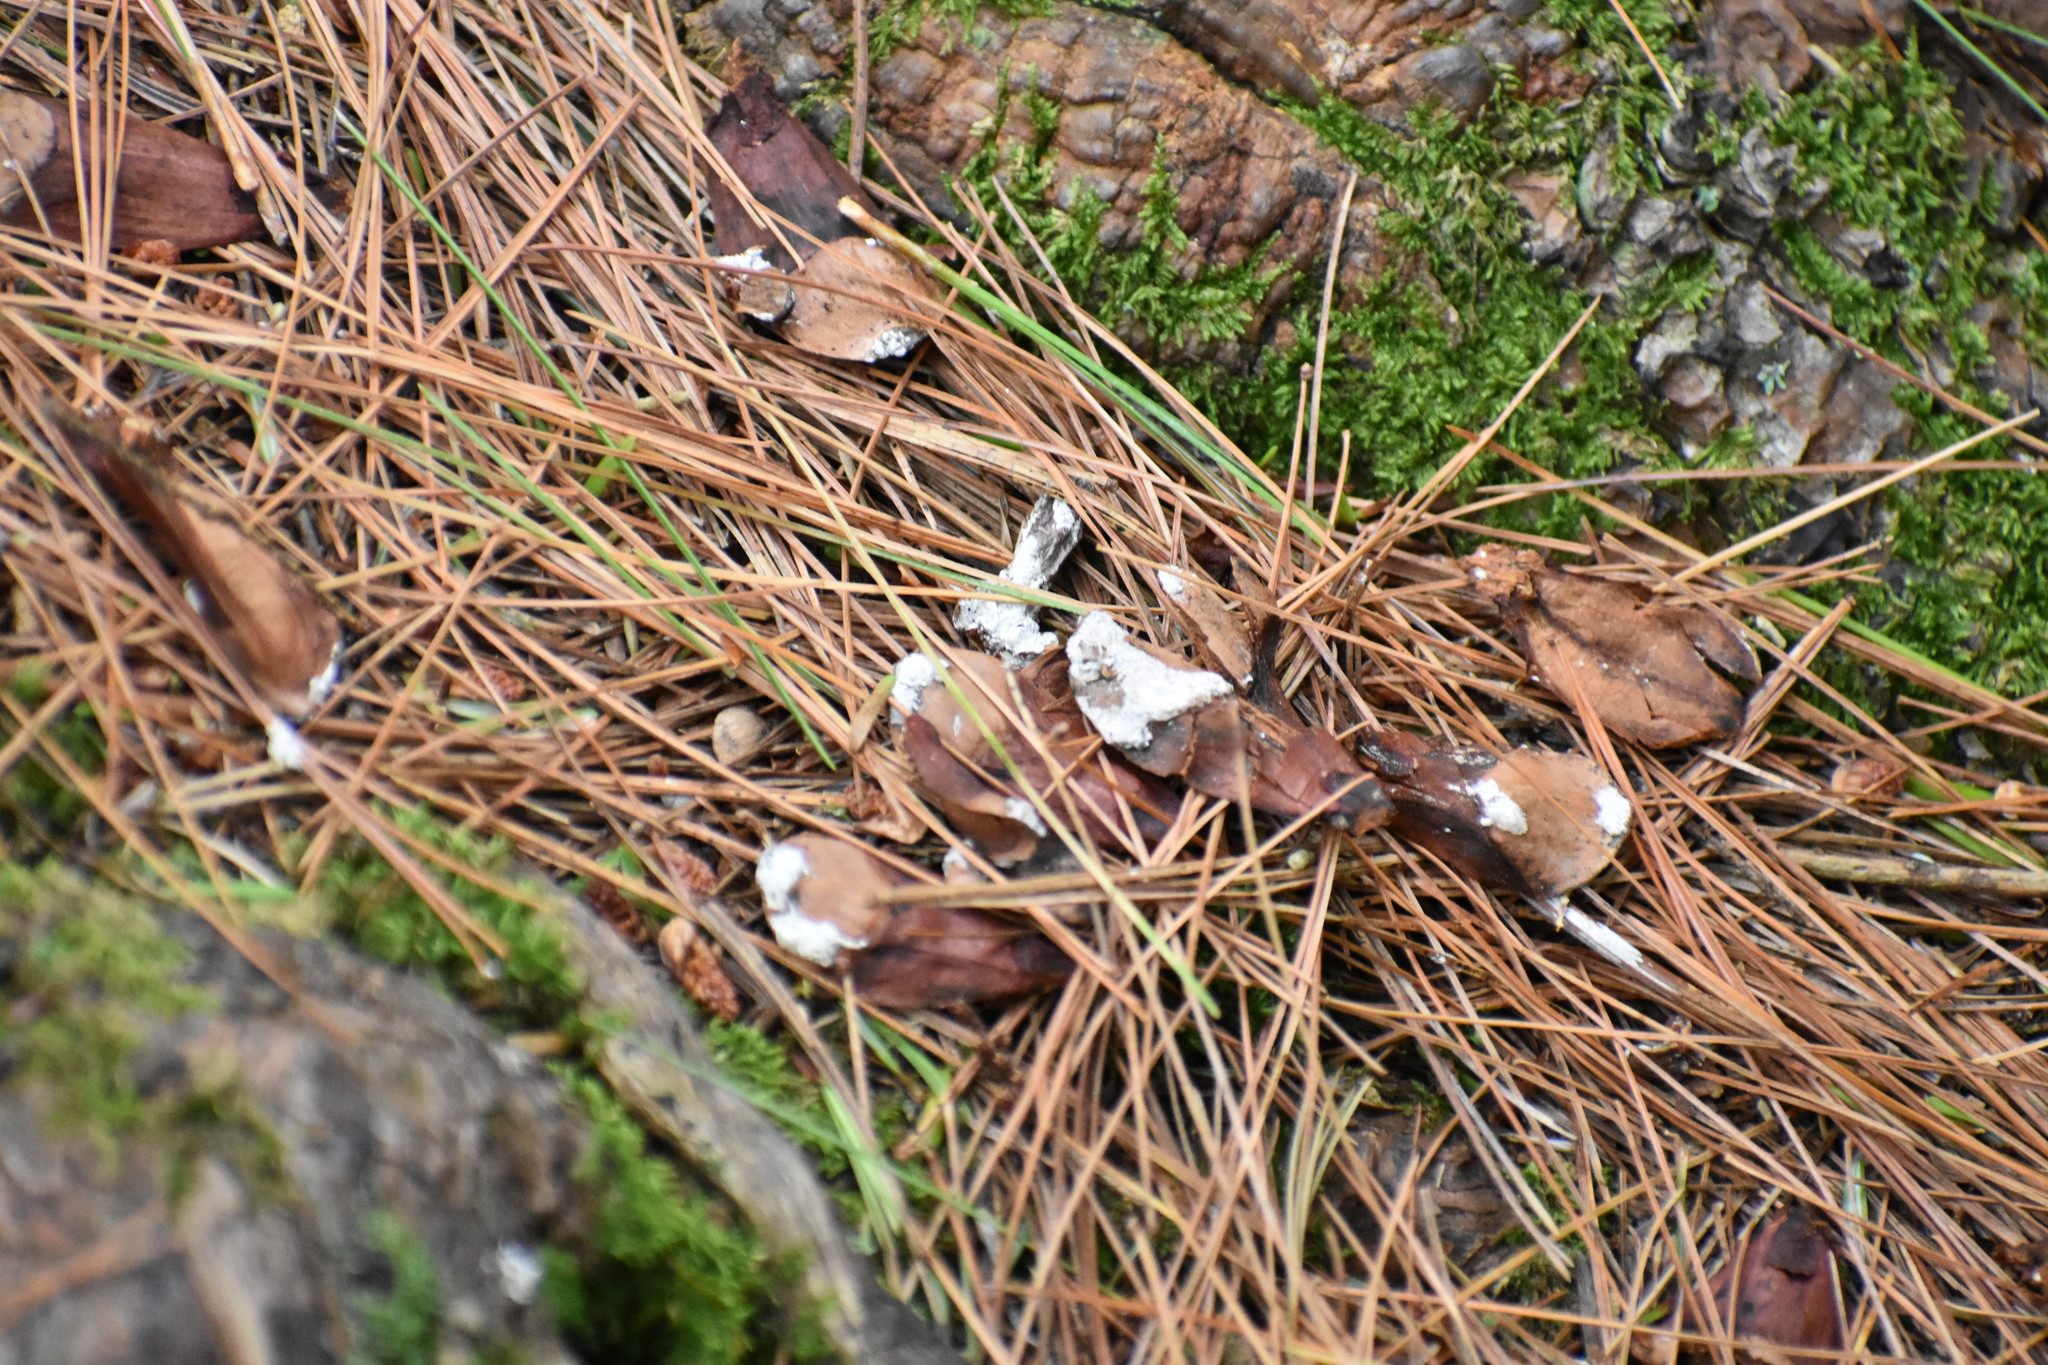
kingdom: Animalia
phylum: Chordata
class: Mammalia
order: Rodentia
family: Sciuridae
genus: Tamiasciurus
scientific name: Tamiasciurus hudsonicus
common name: Red squirrel
